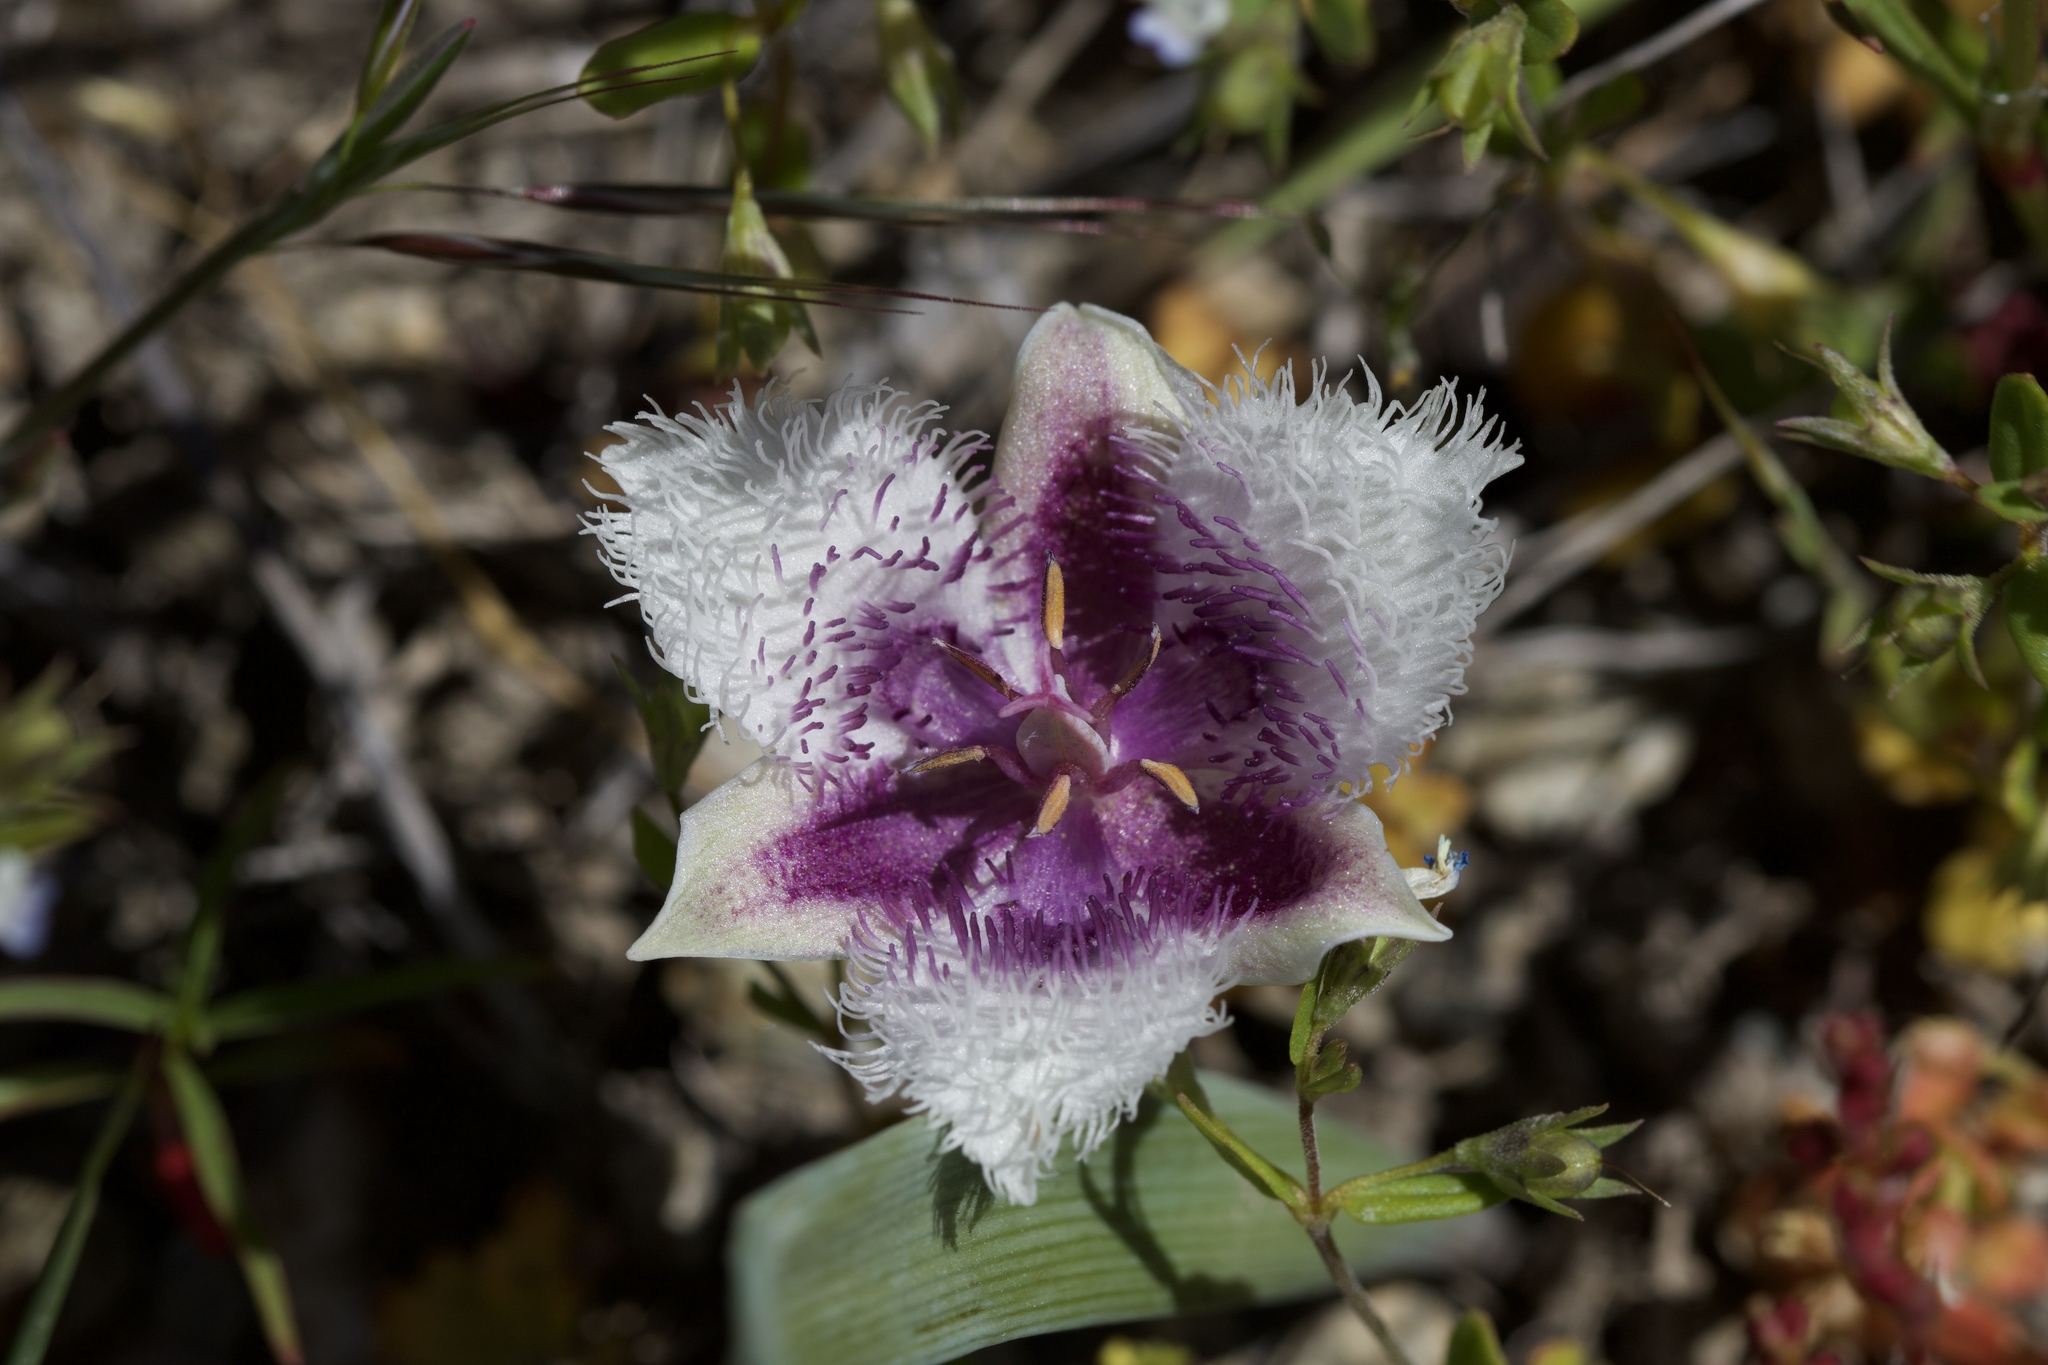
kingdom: Plantae
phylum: Tracheophyta
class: Liliopsida
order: Liliales
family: Liliaceae
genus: Calochortus
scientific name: Calochortus coeruleus
